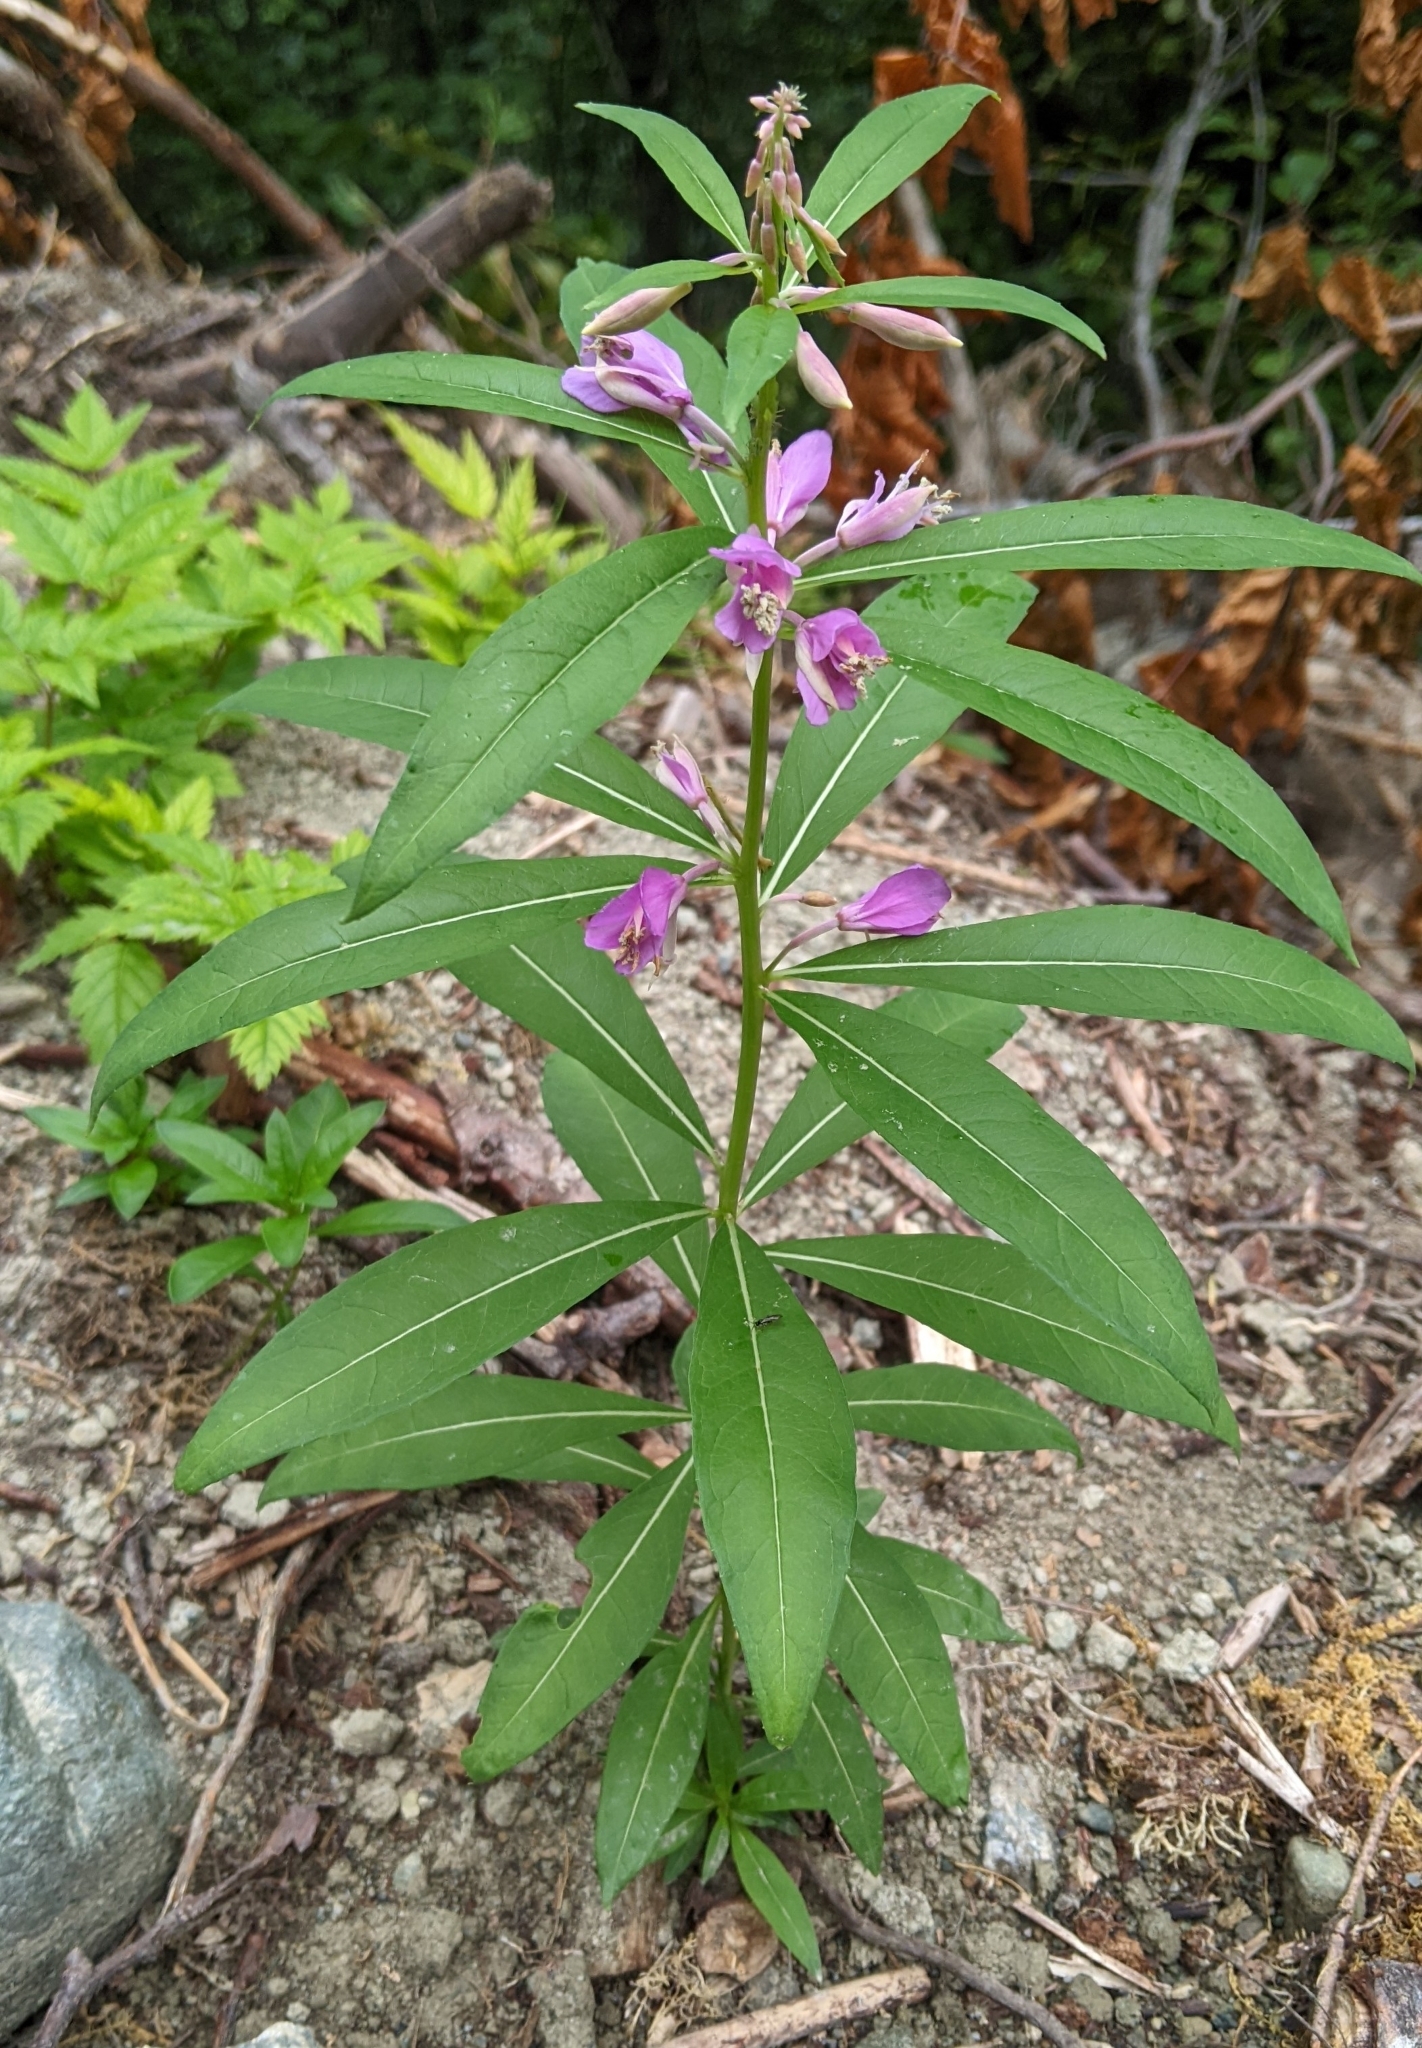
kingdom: Plantae
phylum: Tracheophyta
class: Magnoliopsida
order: Myrtales
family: Onagraceae
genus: Chamaenerion
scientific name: Chamaenerion angustifolium
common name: Fireweed
